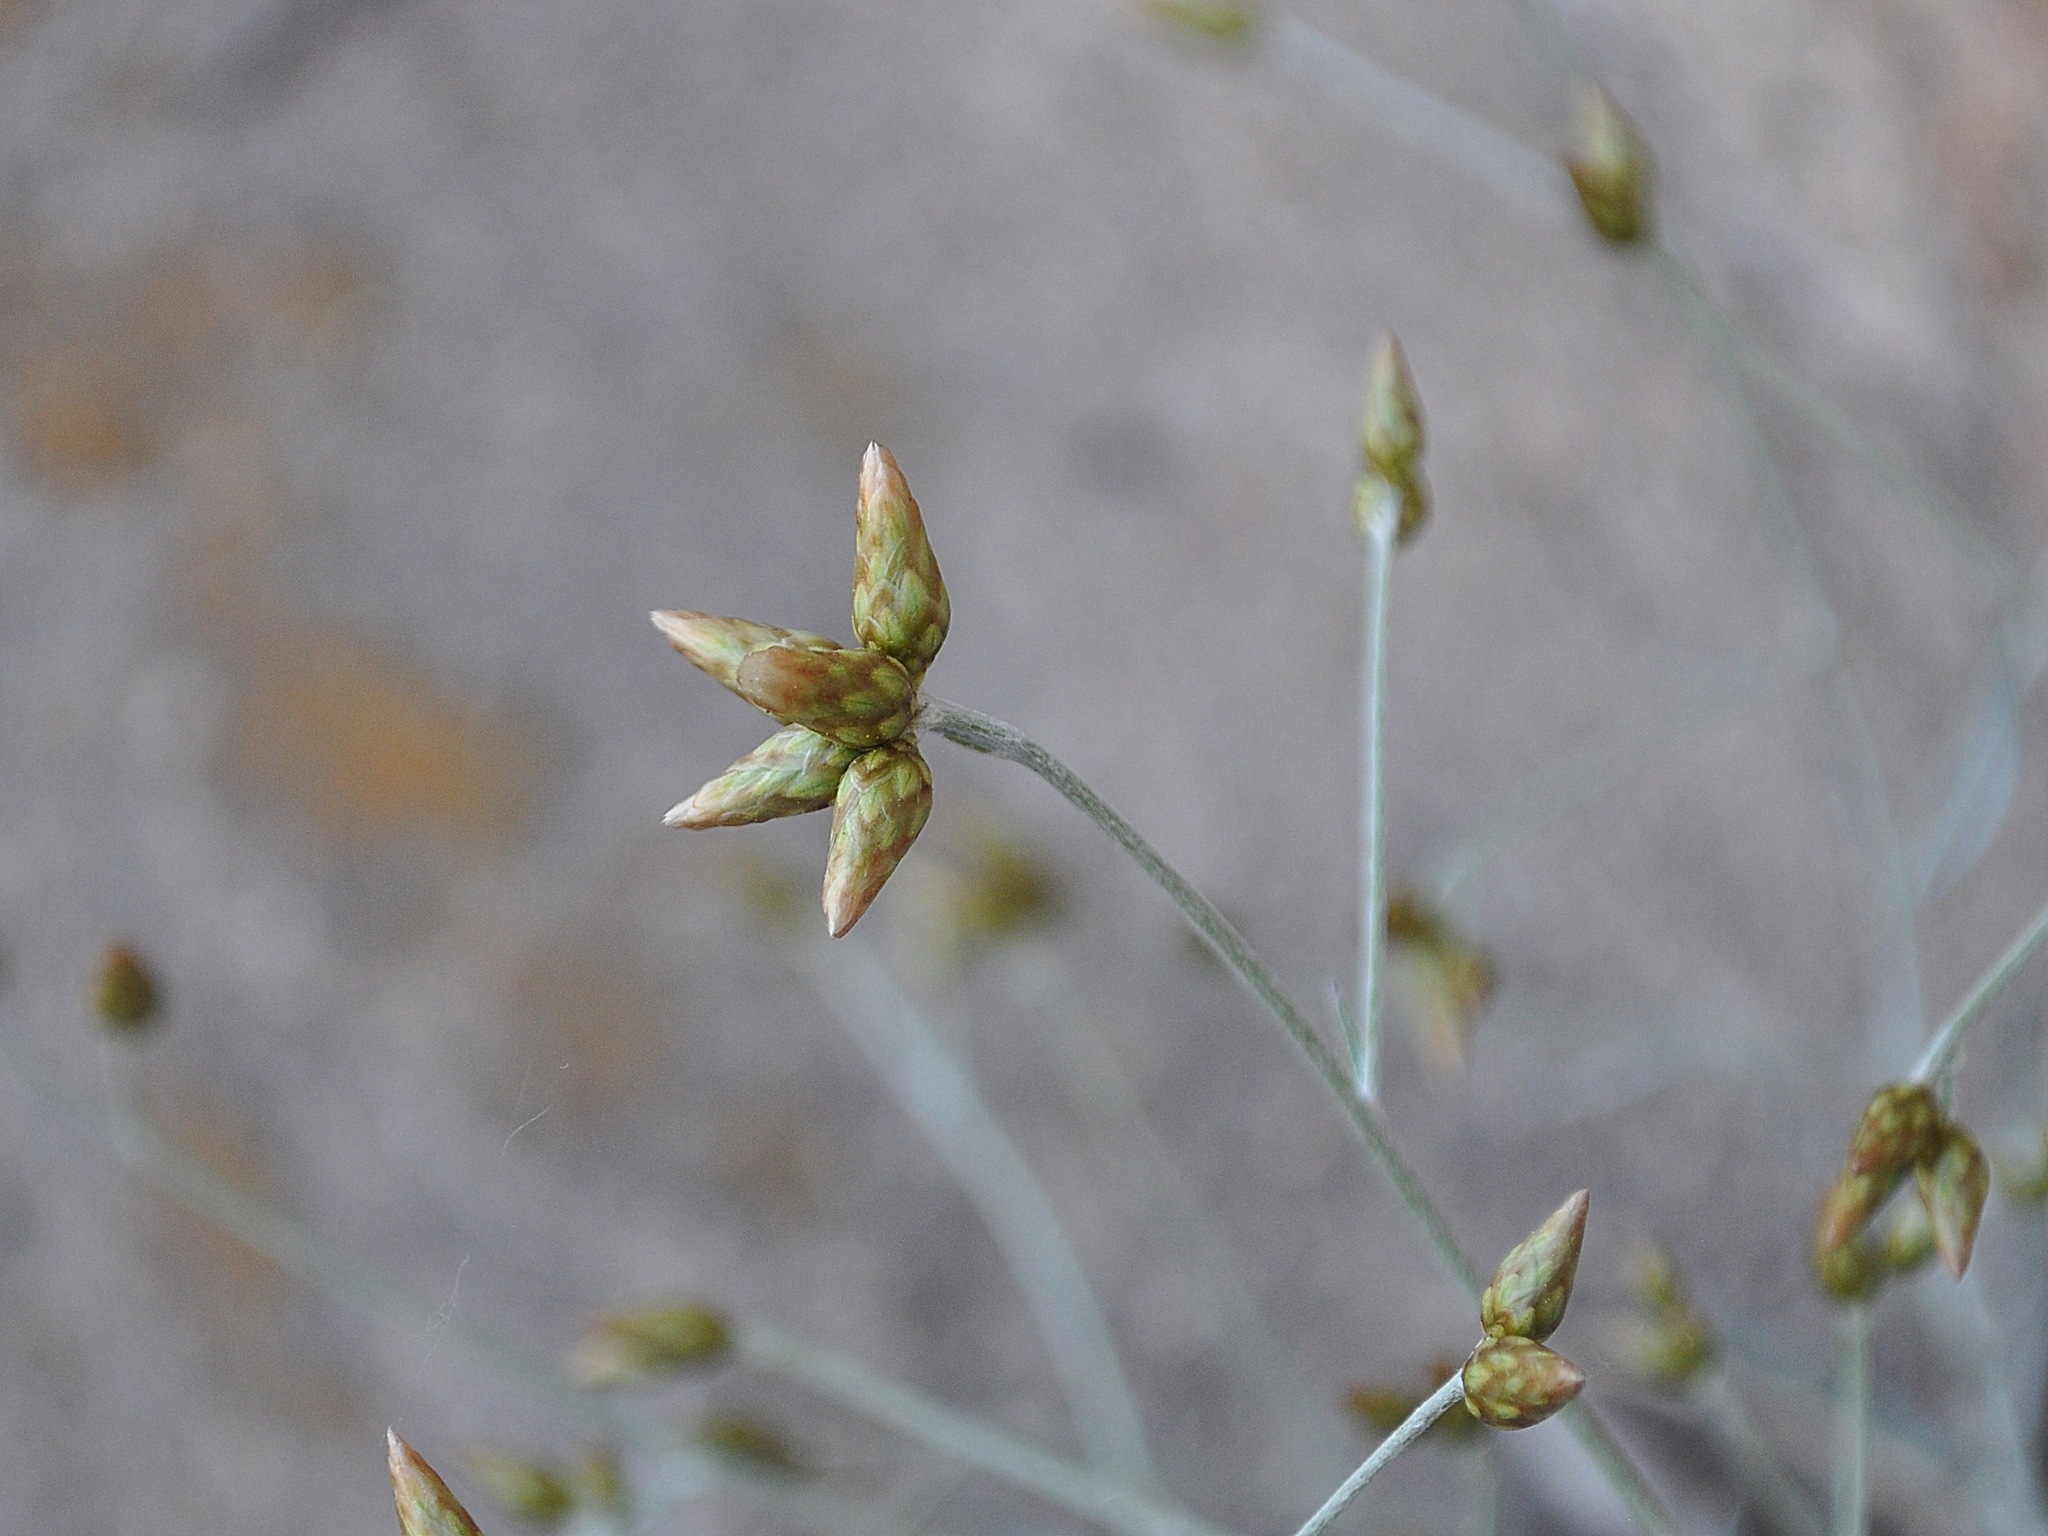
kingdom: Plantae
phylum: Tracheophyta
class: Magnoliopsida
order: Asterales
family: Asteraceae
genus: Phagnalon
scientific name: Phagnalon sordidum
